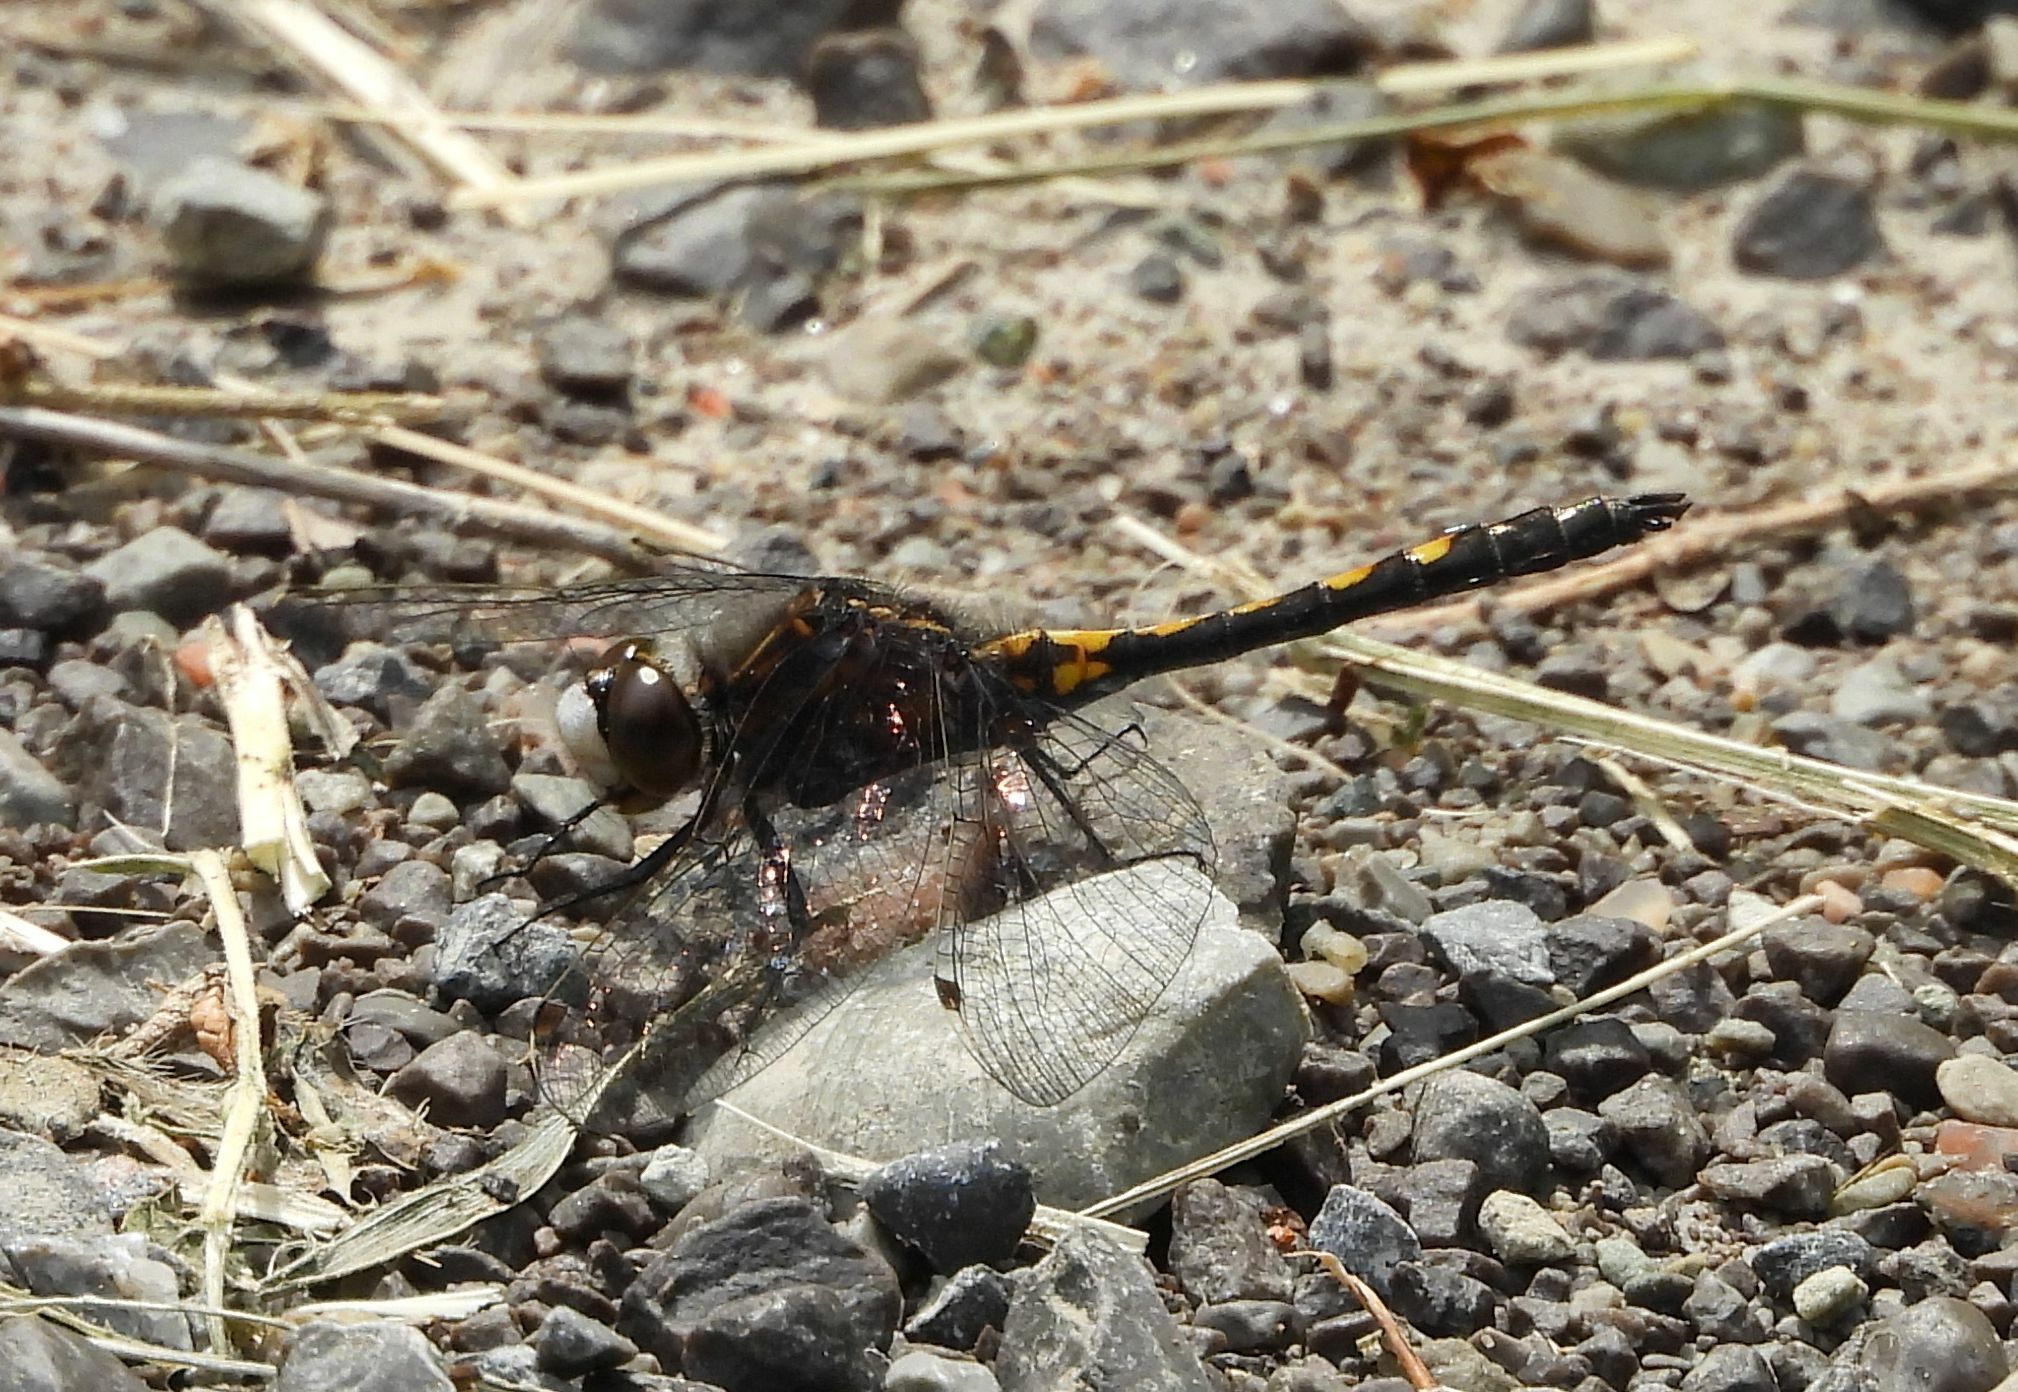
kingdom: Animalia
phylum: Arthropoda
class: Insecta
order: Odonata
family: Libellulidae
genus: Leucorrhinia
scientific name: Leucorrhinia intacta
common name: Dot-tailed whiteface
